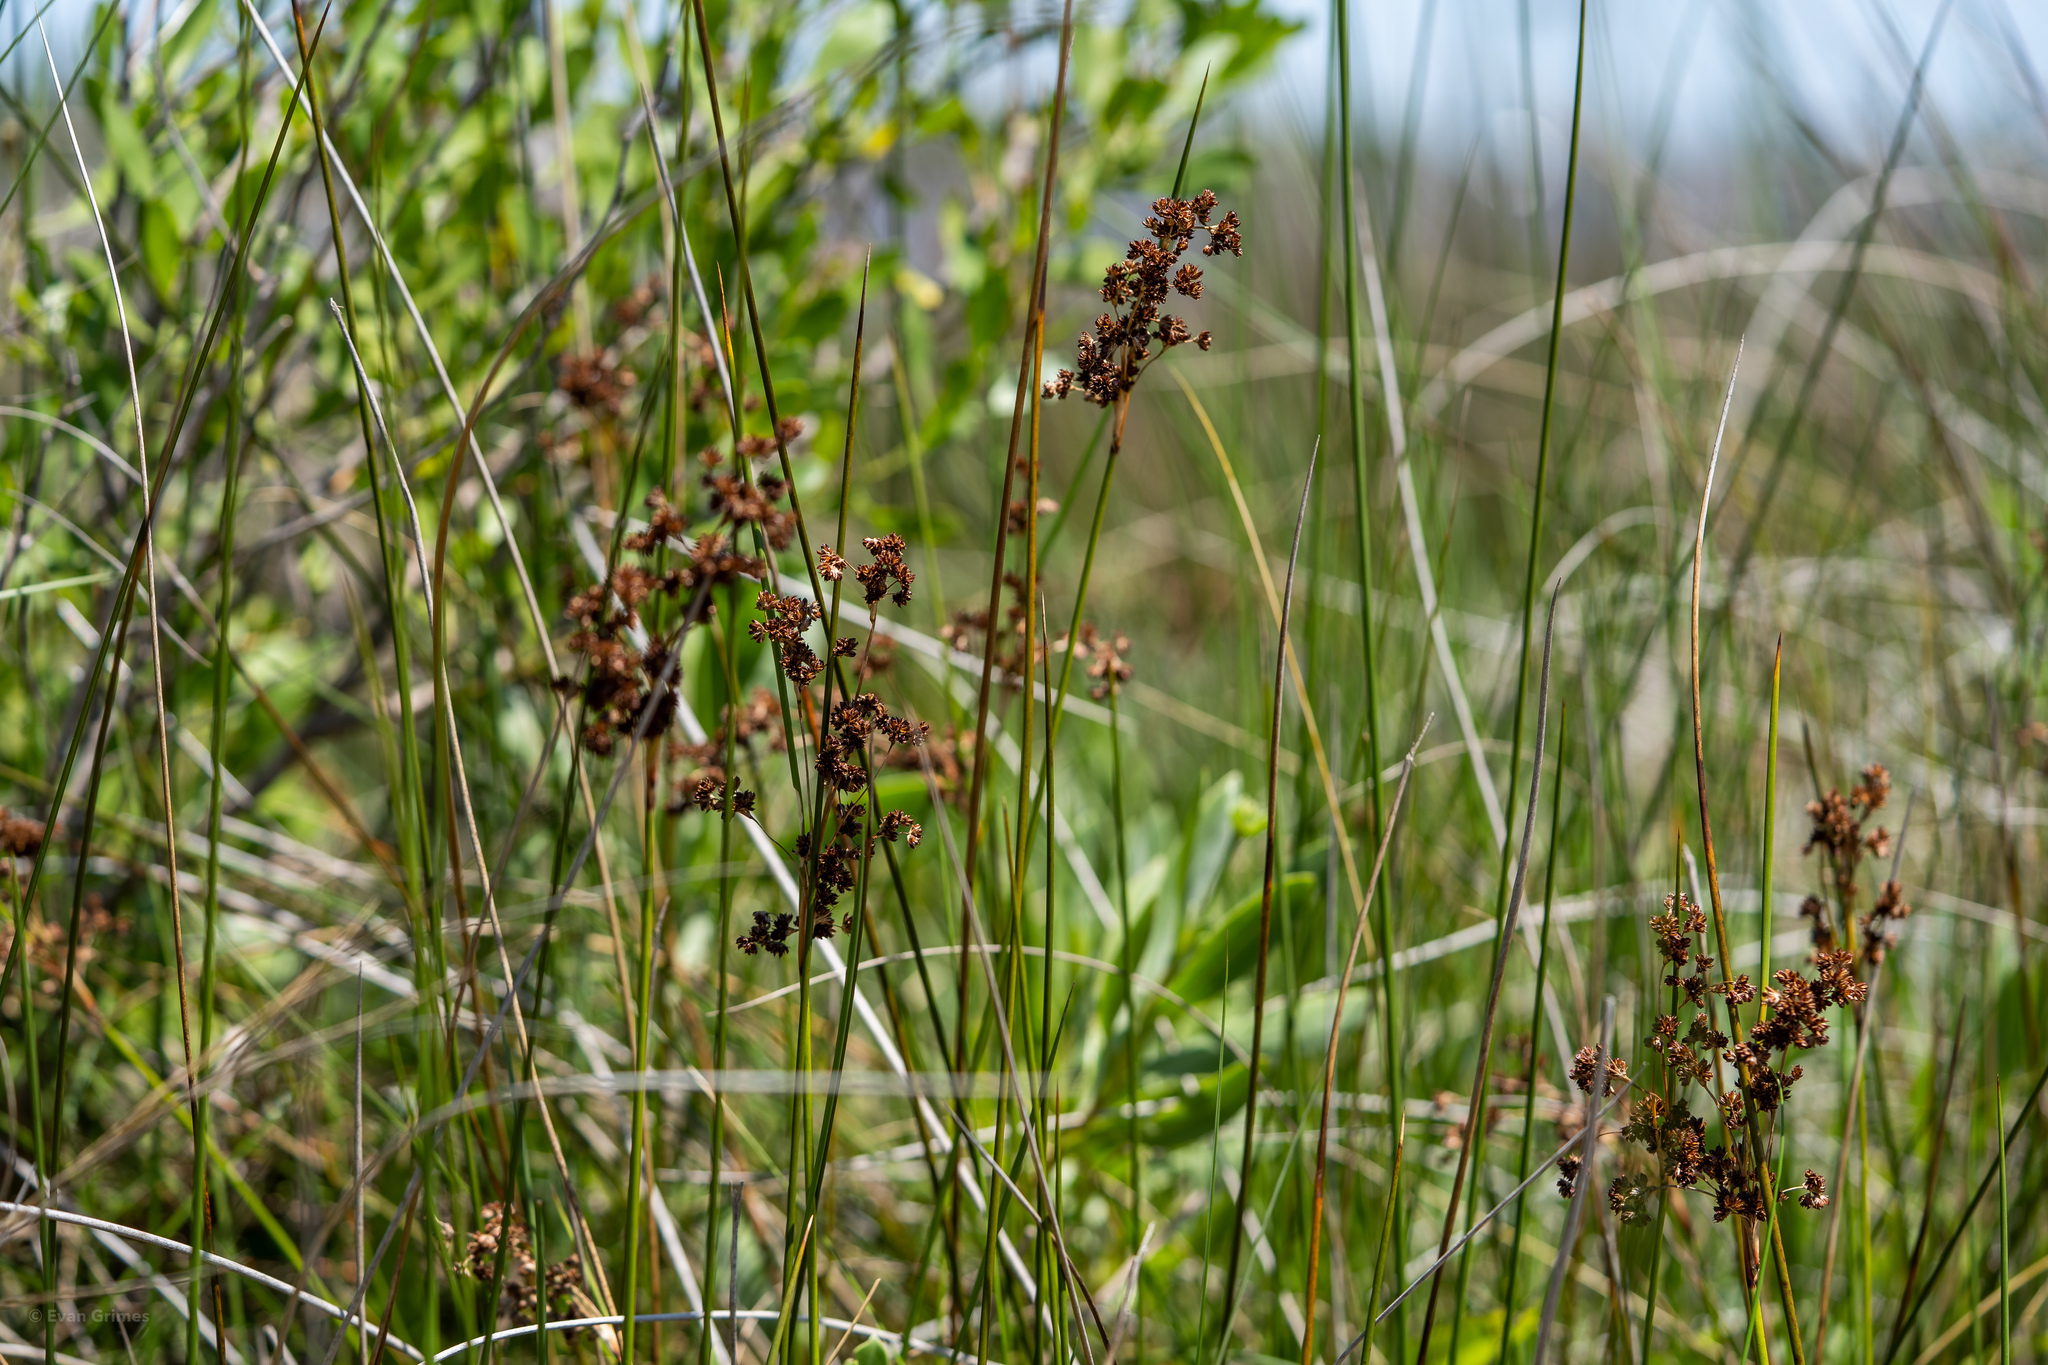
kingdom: Plantae
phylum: Tracheophyta
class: Liliopsida
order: Poales
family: Juncaceae
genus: Juncus
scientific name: Juncus roemerianus
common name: Roemer's rush
